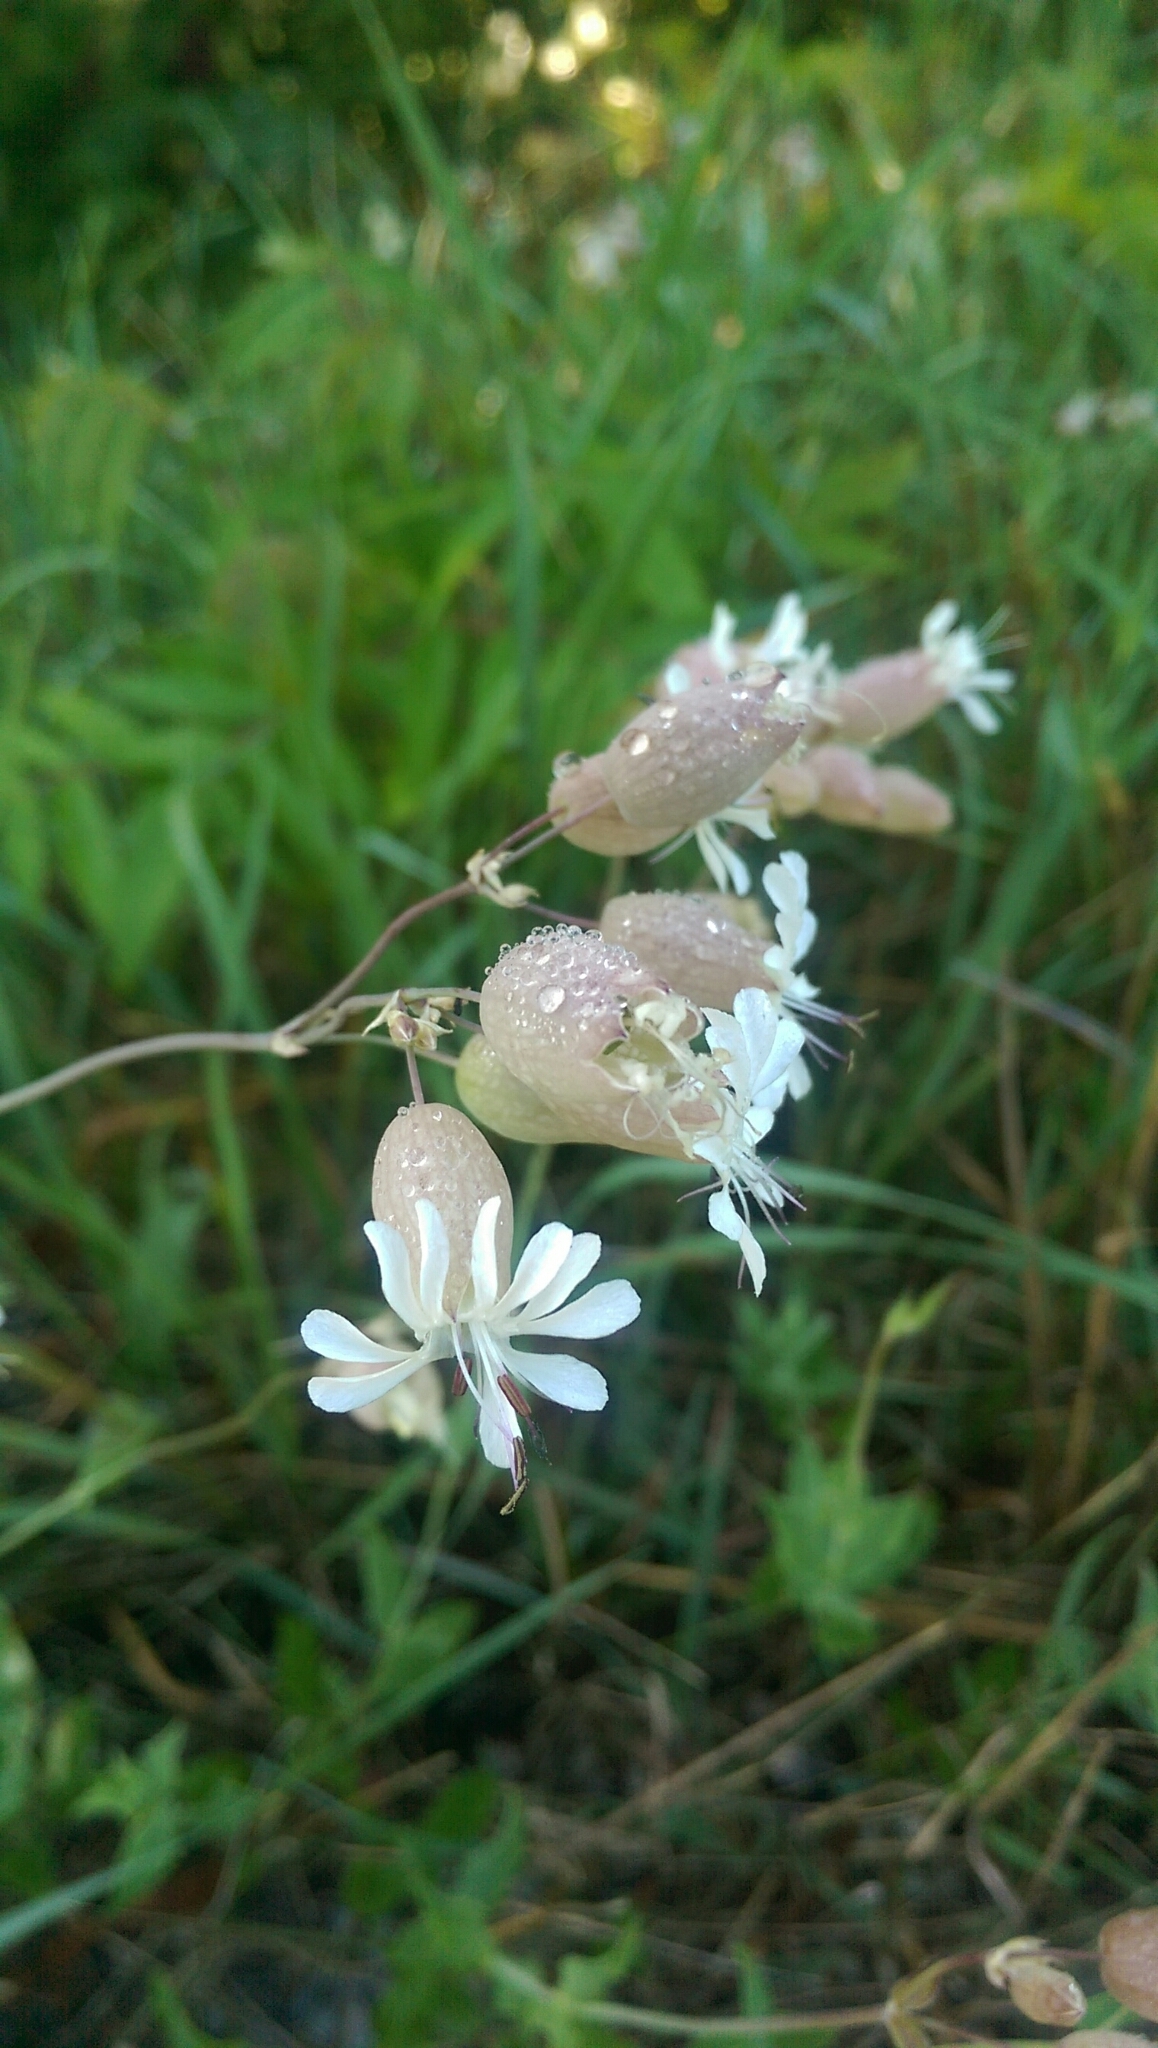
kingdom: Plantae
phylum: Tracheophyta
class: Magnoliopsida
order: Caryophyllales
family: Caryophyllaceae
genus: Silene
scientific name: Silene vulgaris
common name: Bladder campion
